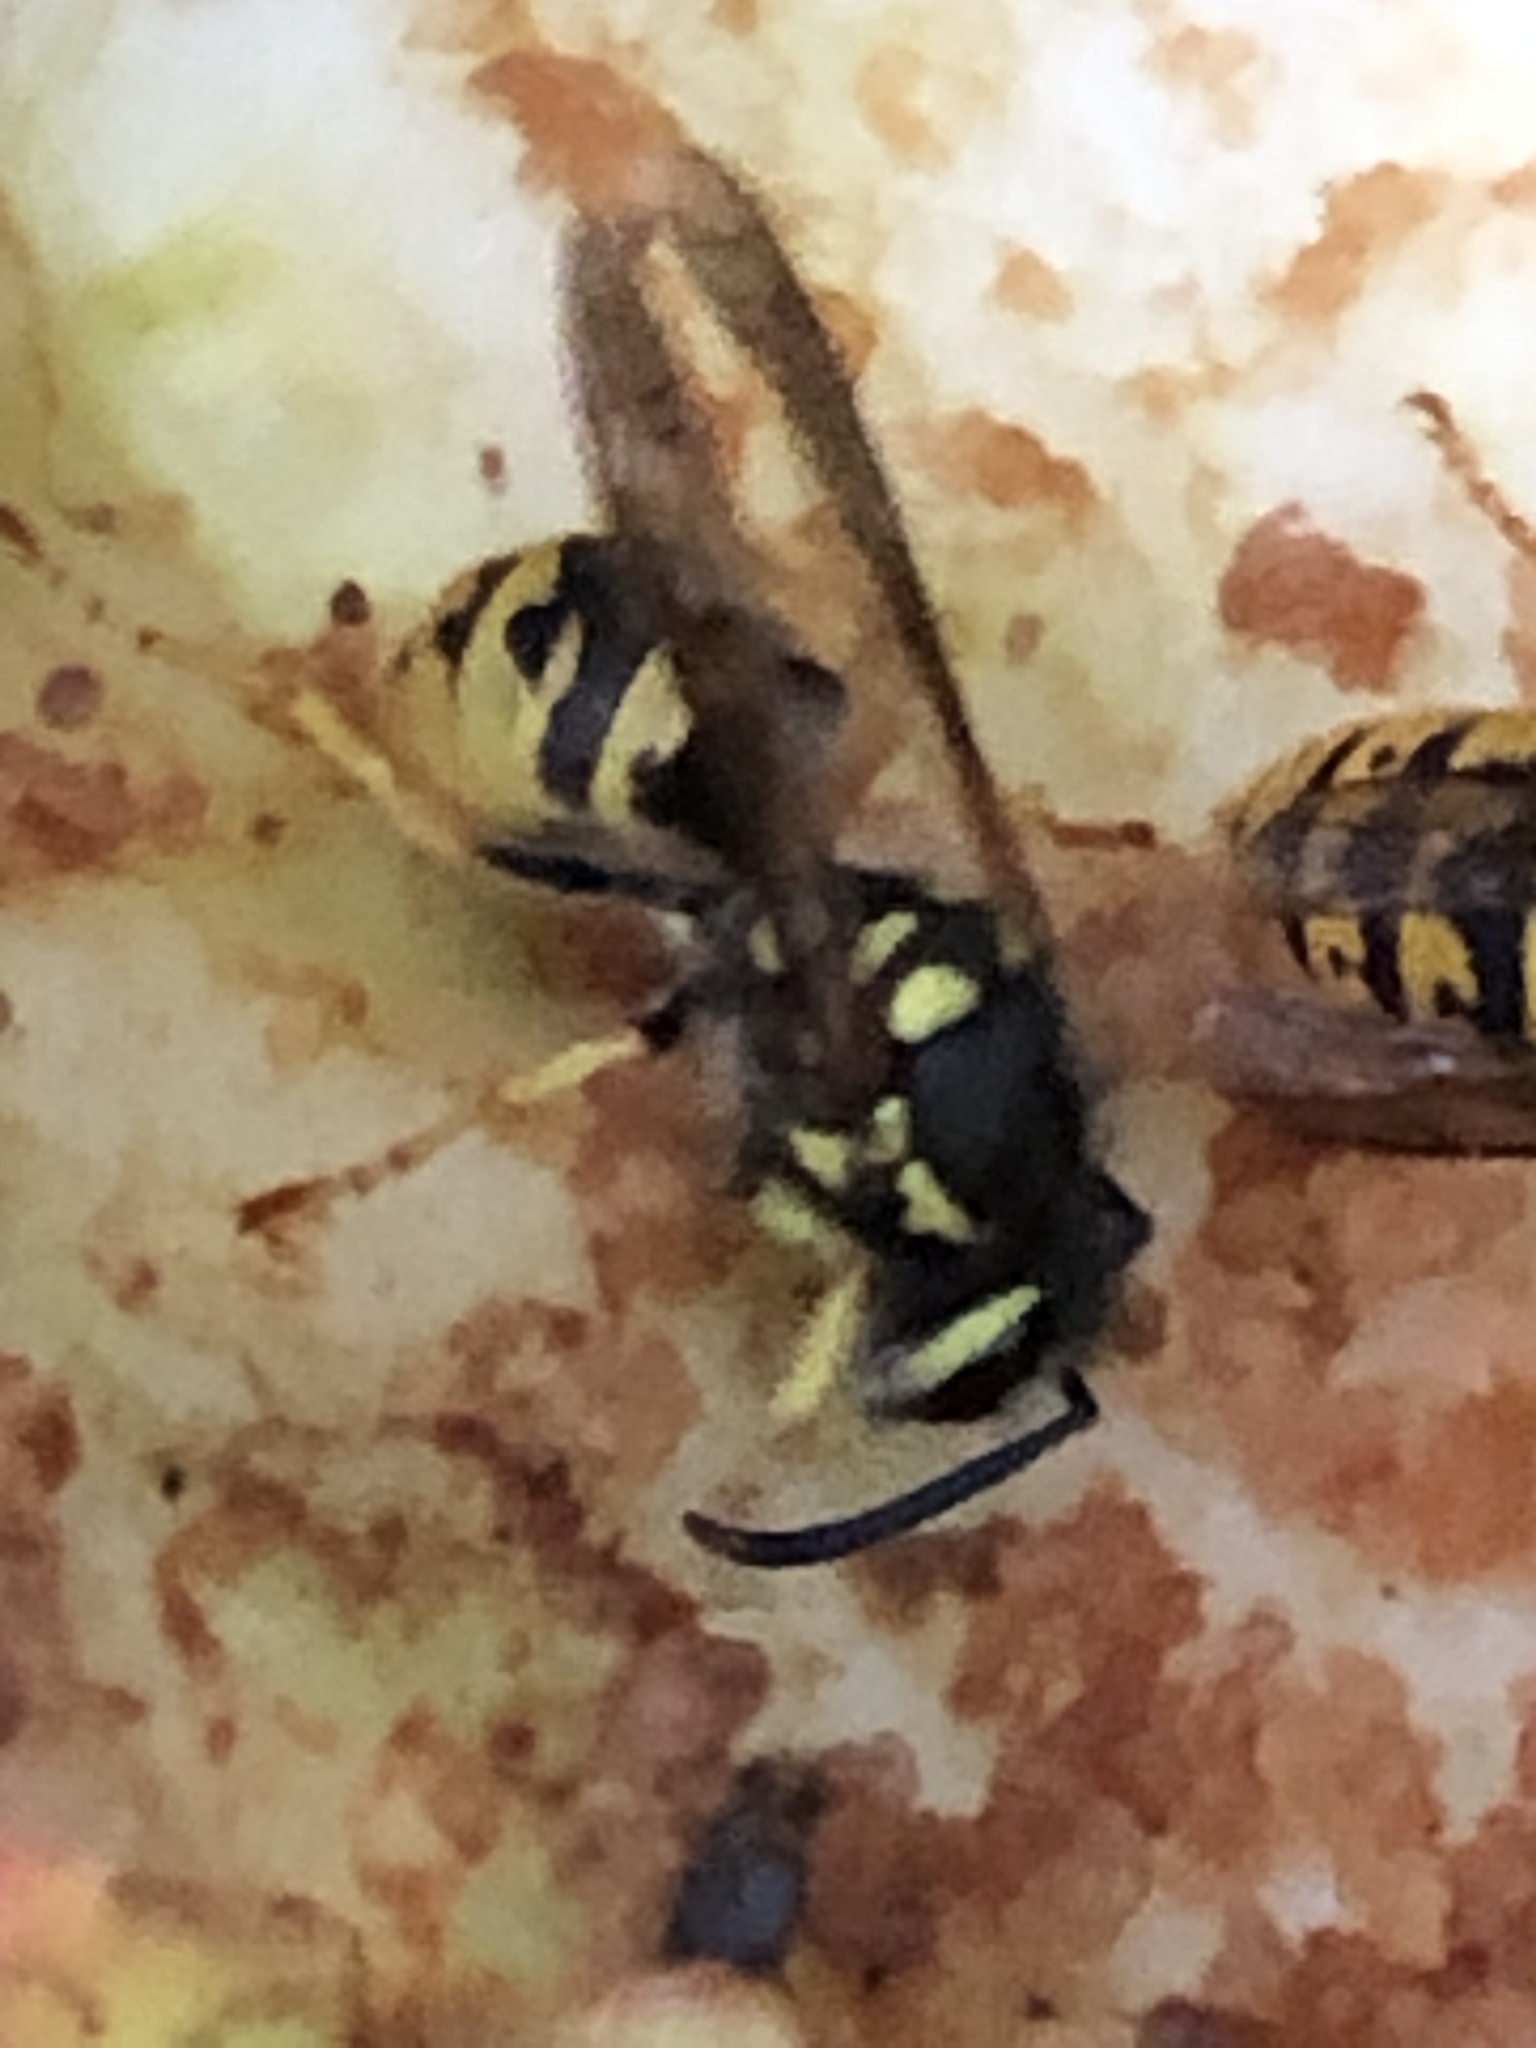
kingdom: Animalia
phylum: Arthropoda
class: Insecta
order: Hymenoptera
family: Vespidae
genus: Vespula
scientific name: Vespula germanica
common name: German wasp
